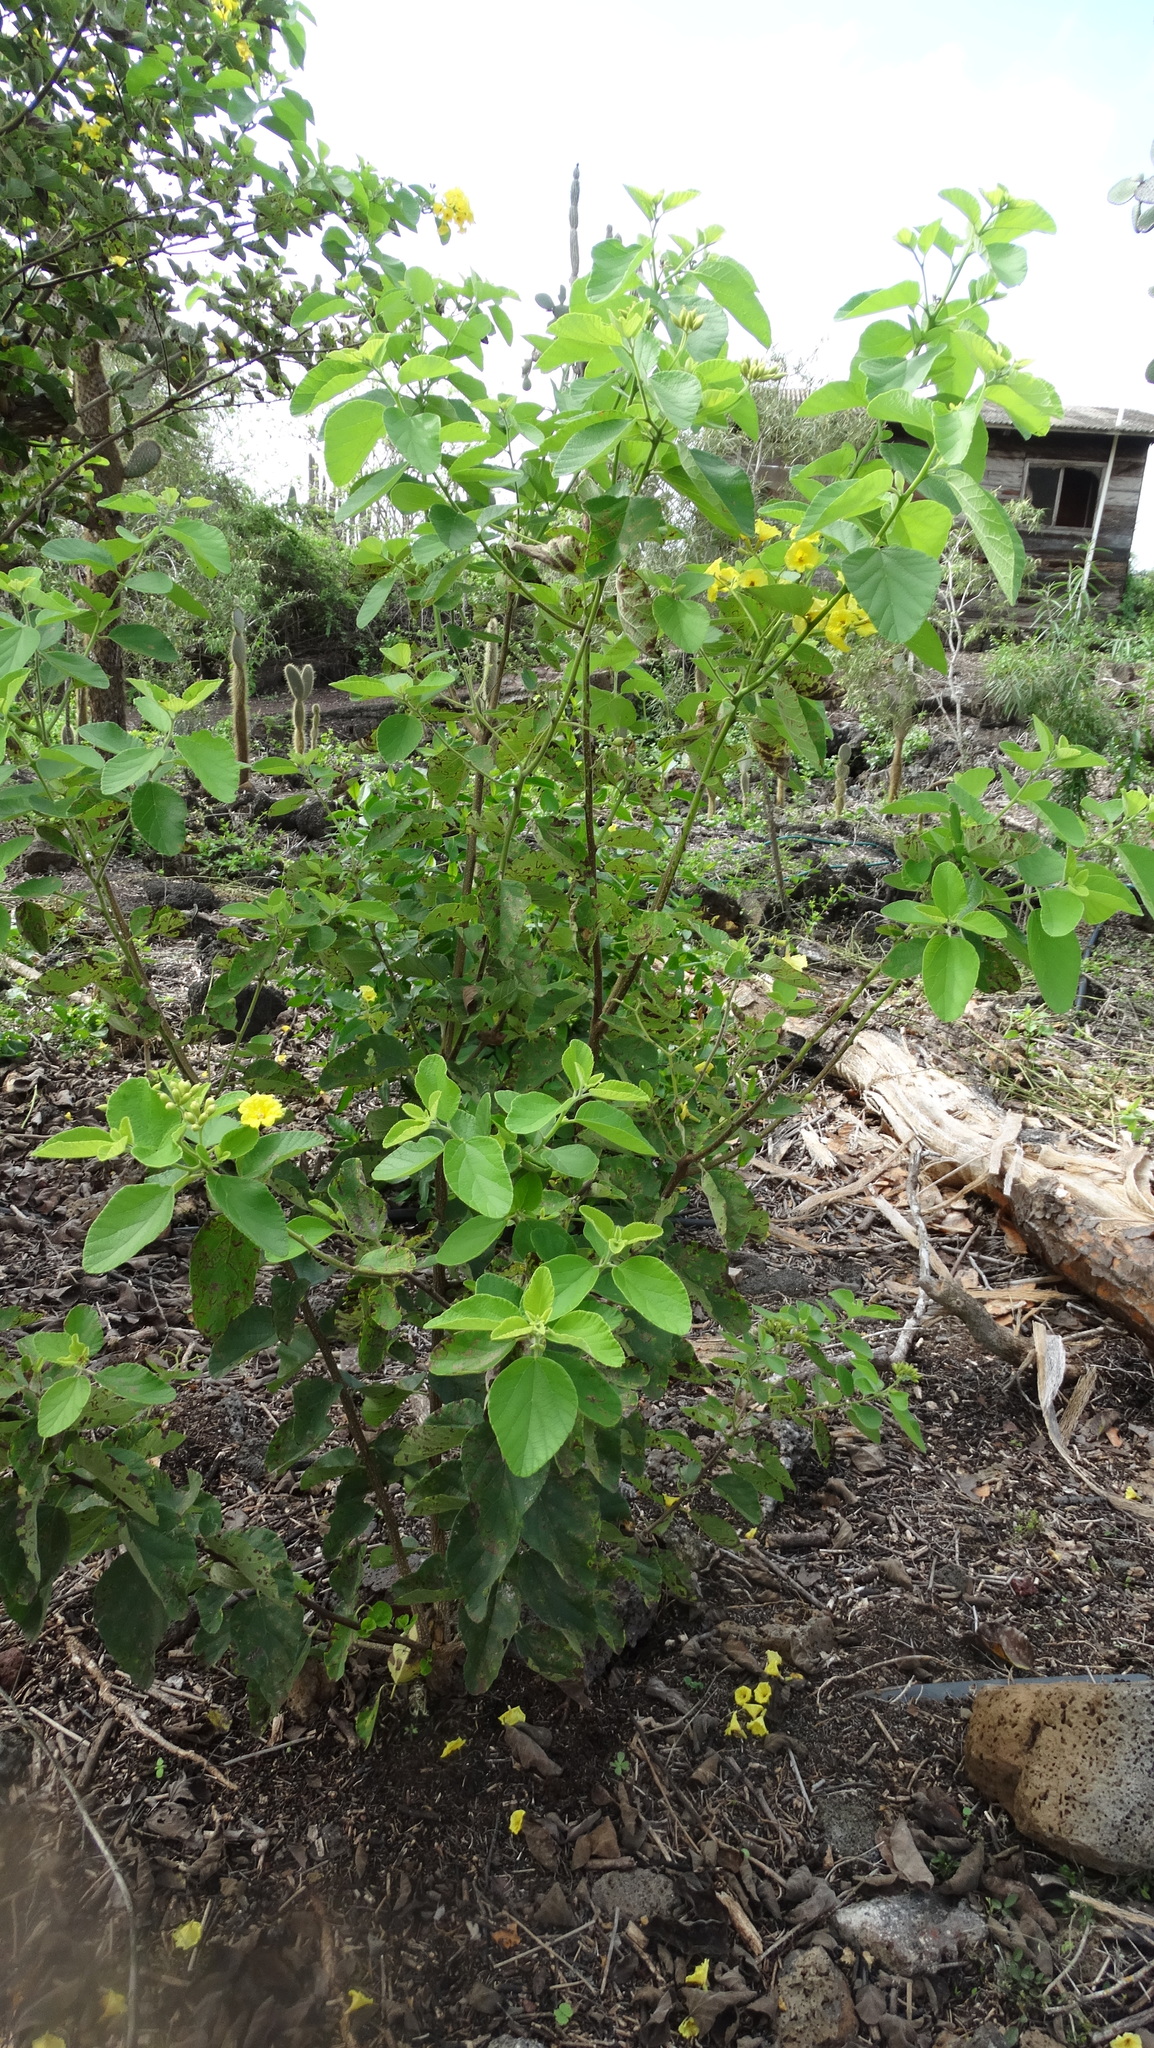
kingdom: Plantae
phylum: Tracheophyta
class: Magnoliopsida
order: Boraginales
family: Cordiaceae
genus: Cordia
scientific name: Cordia lutea
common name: Yellow geiger
